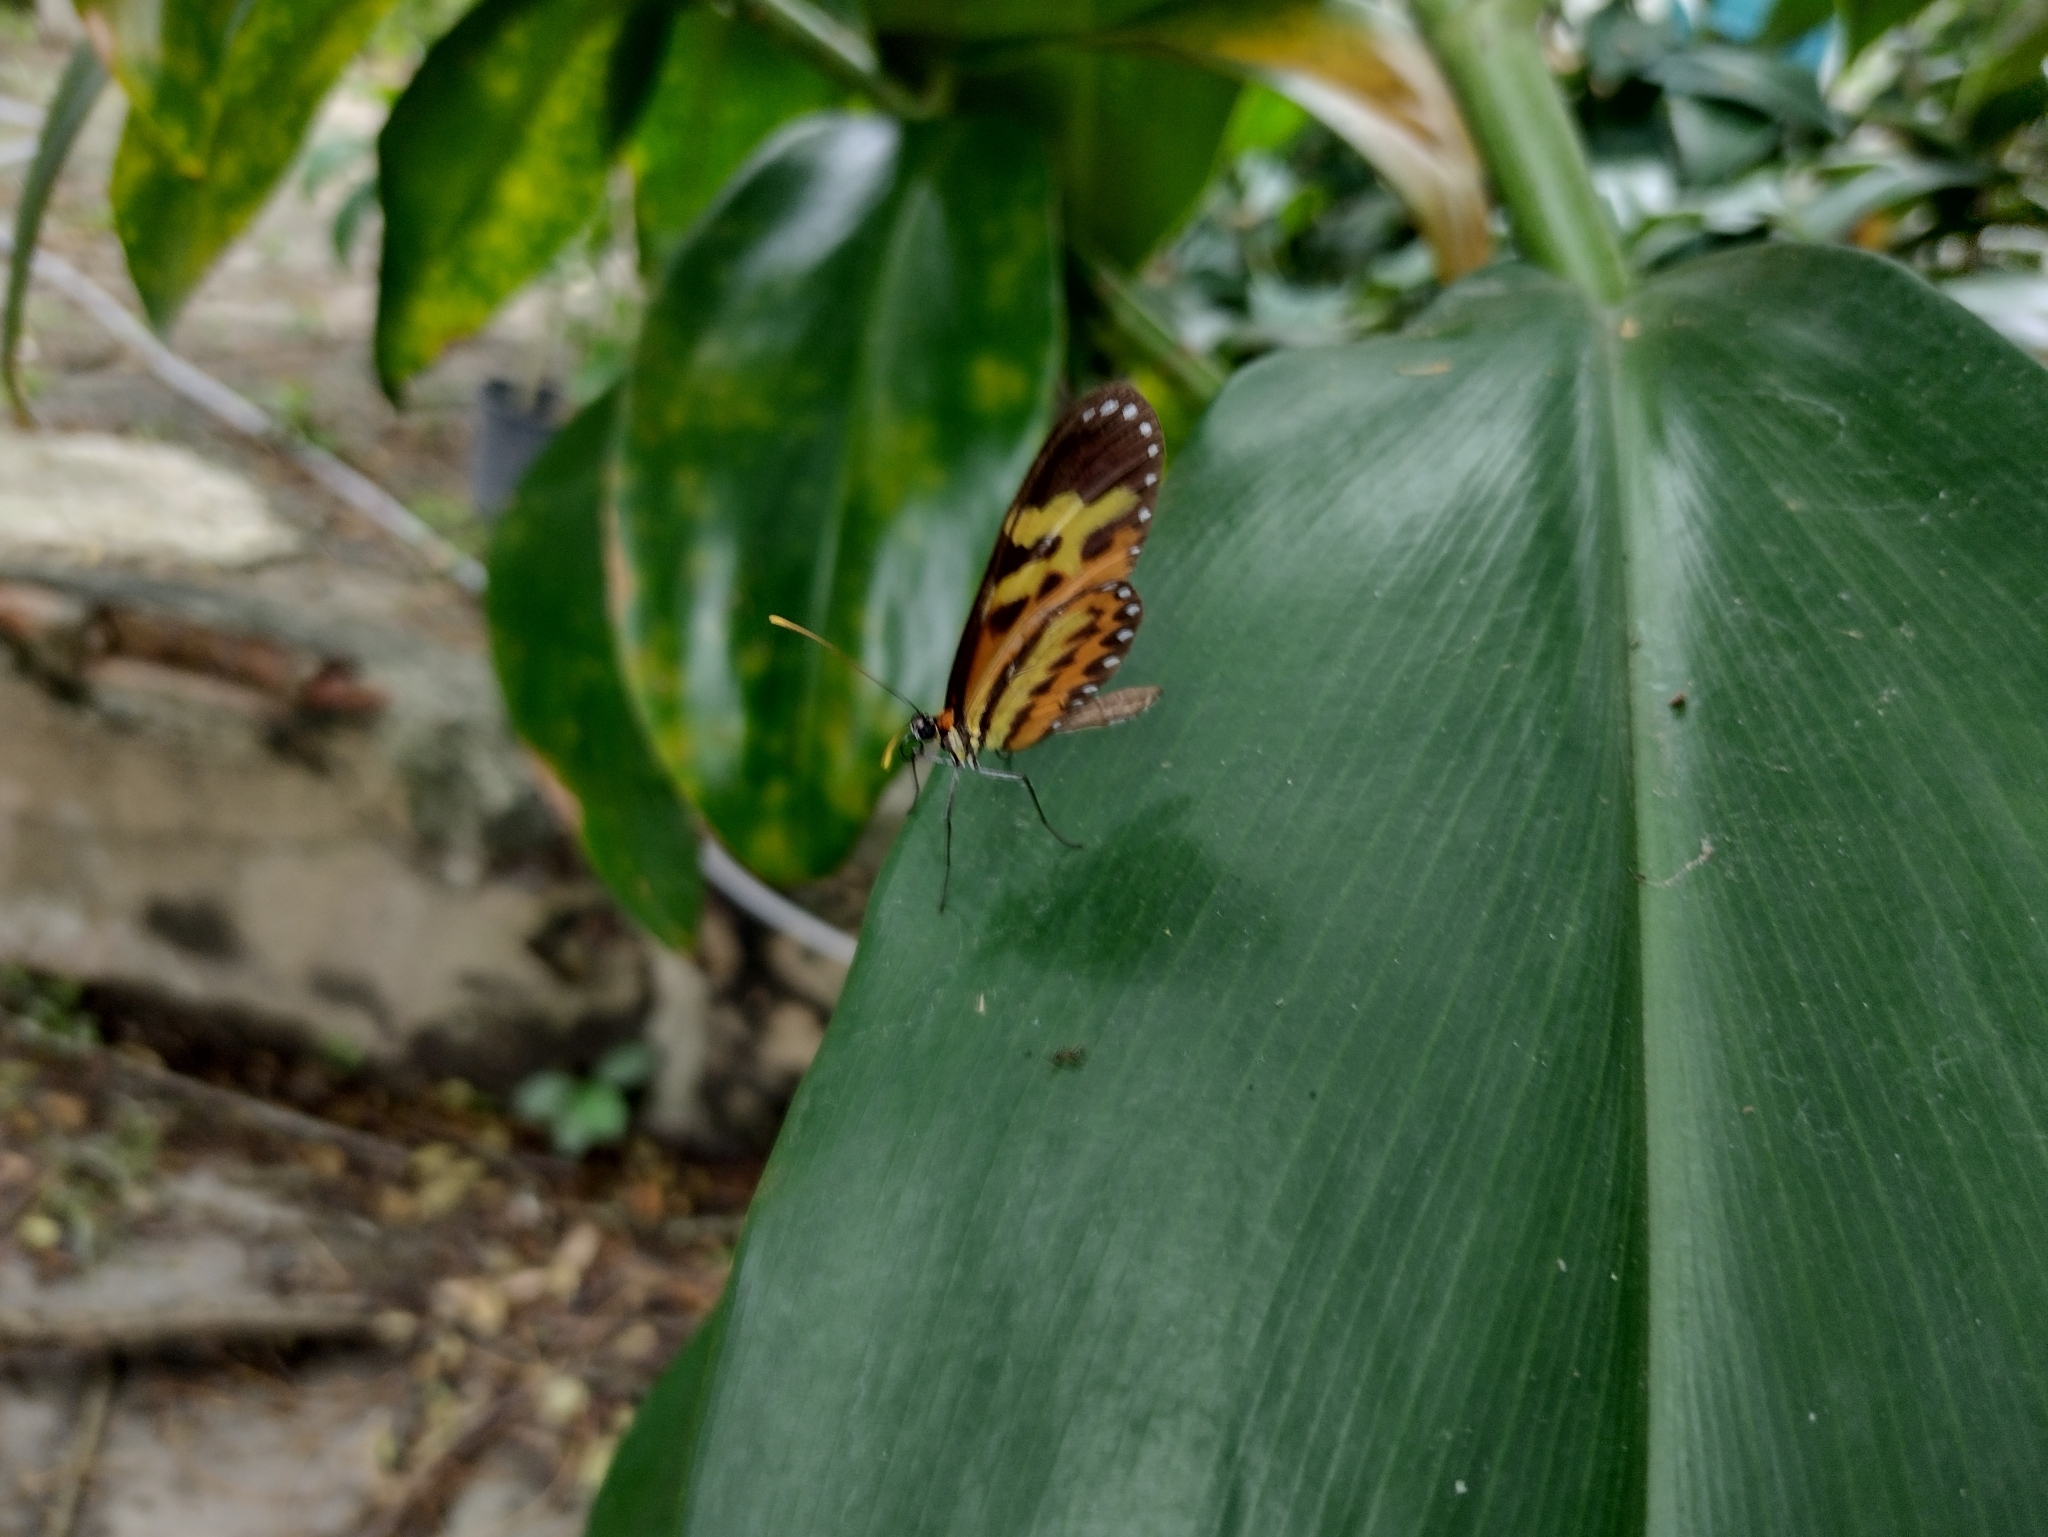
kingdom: Animalia
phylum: Arthropoda
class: Insecta
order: Lepidoptera
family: Nymphalidae
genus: Mechanitis
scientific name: Mechanitis polymnia
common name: Disturbed tigerwing
